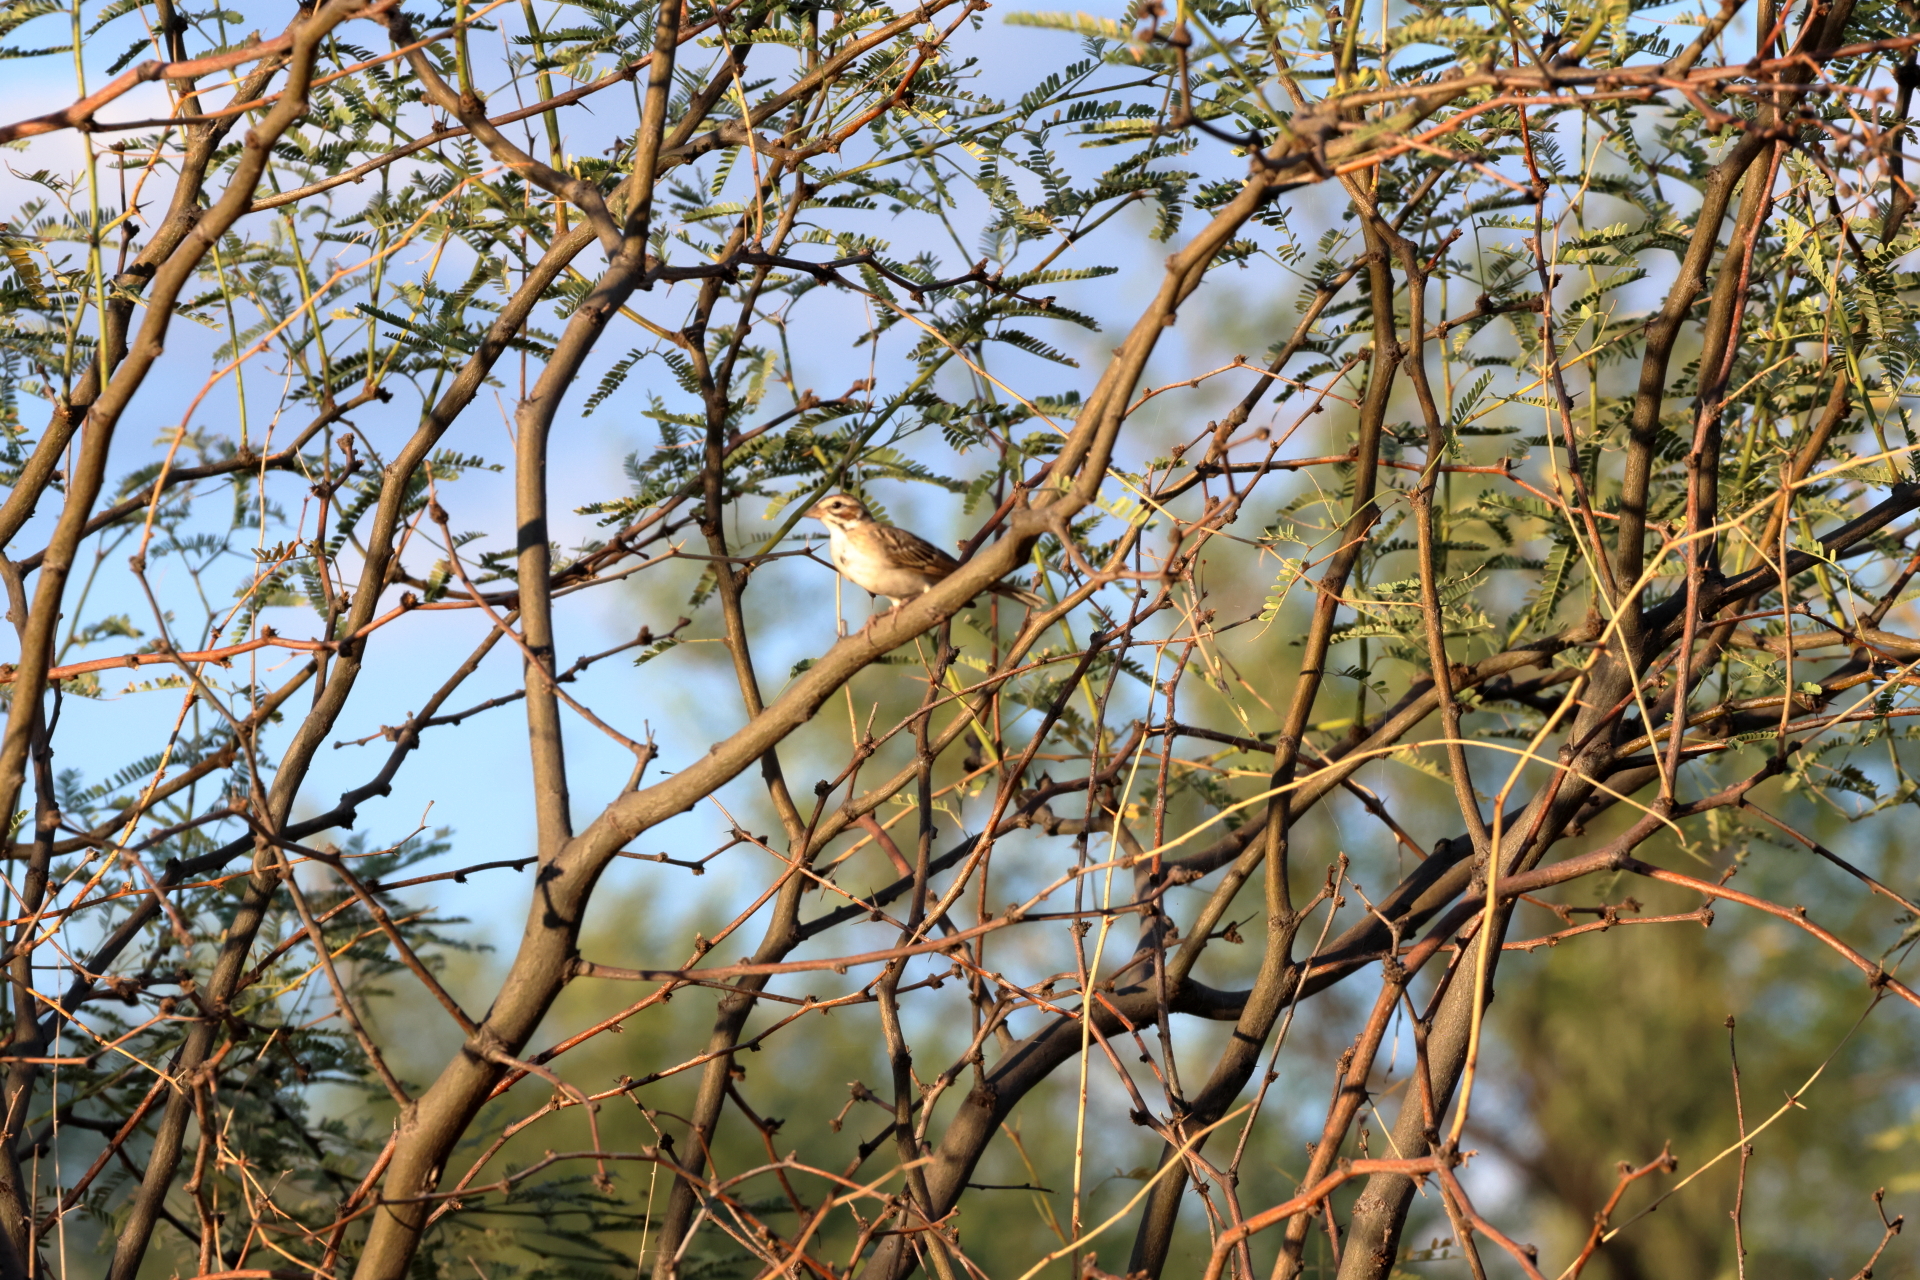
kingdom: Animalia
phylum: Chordata
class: Aves
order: Passeriformes
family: Passerellidae
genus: Chondestes
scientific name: Chondestes grammacus
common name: Lark sparrow
